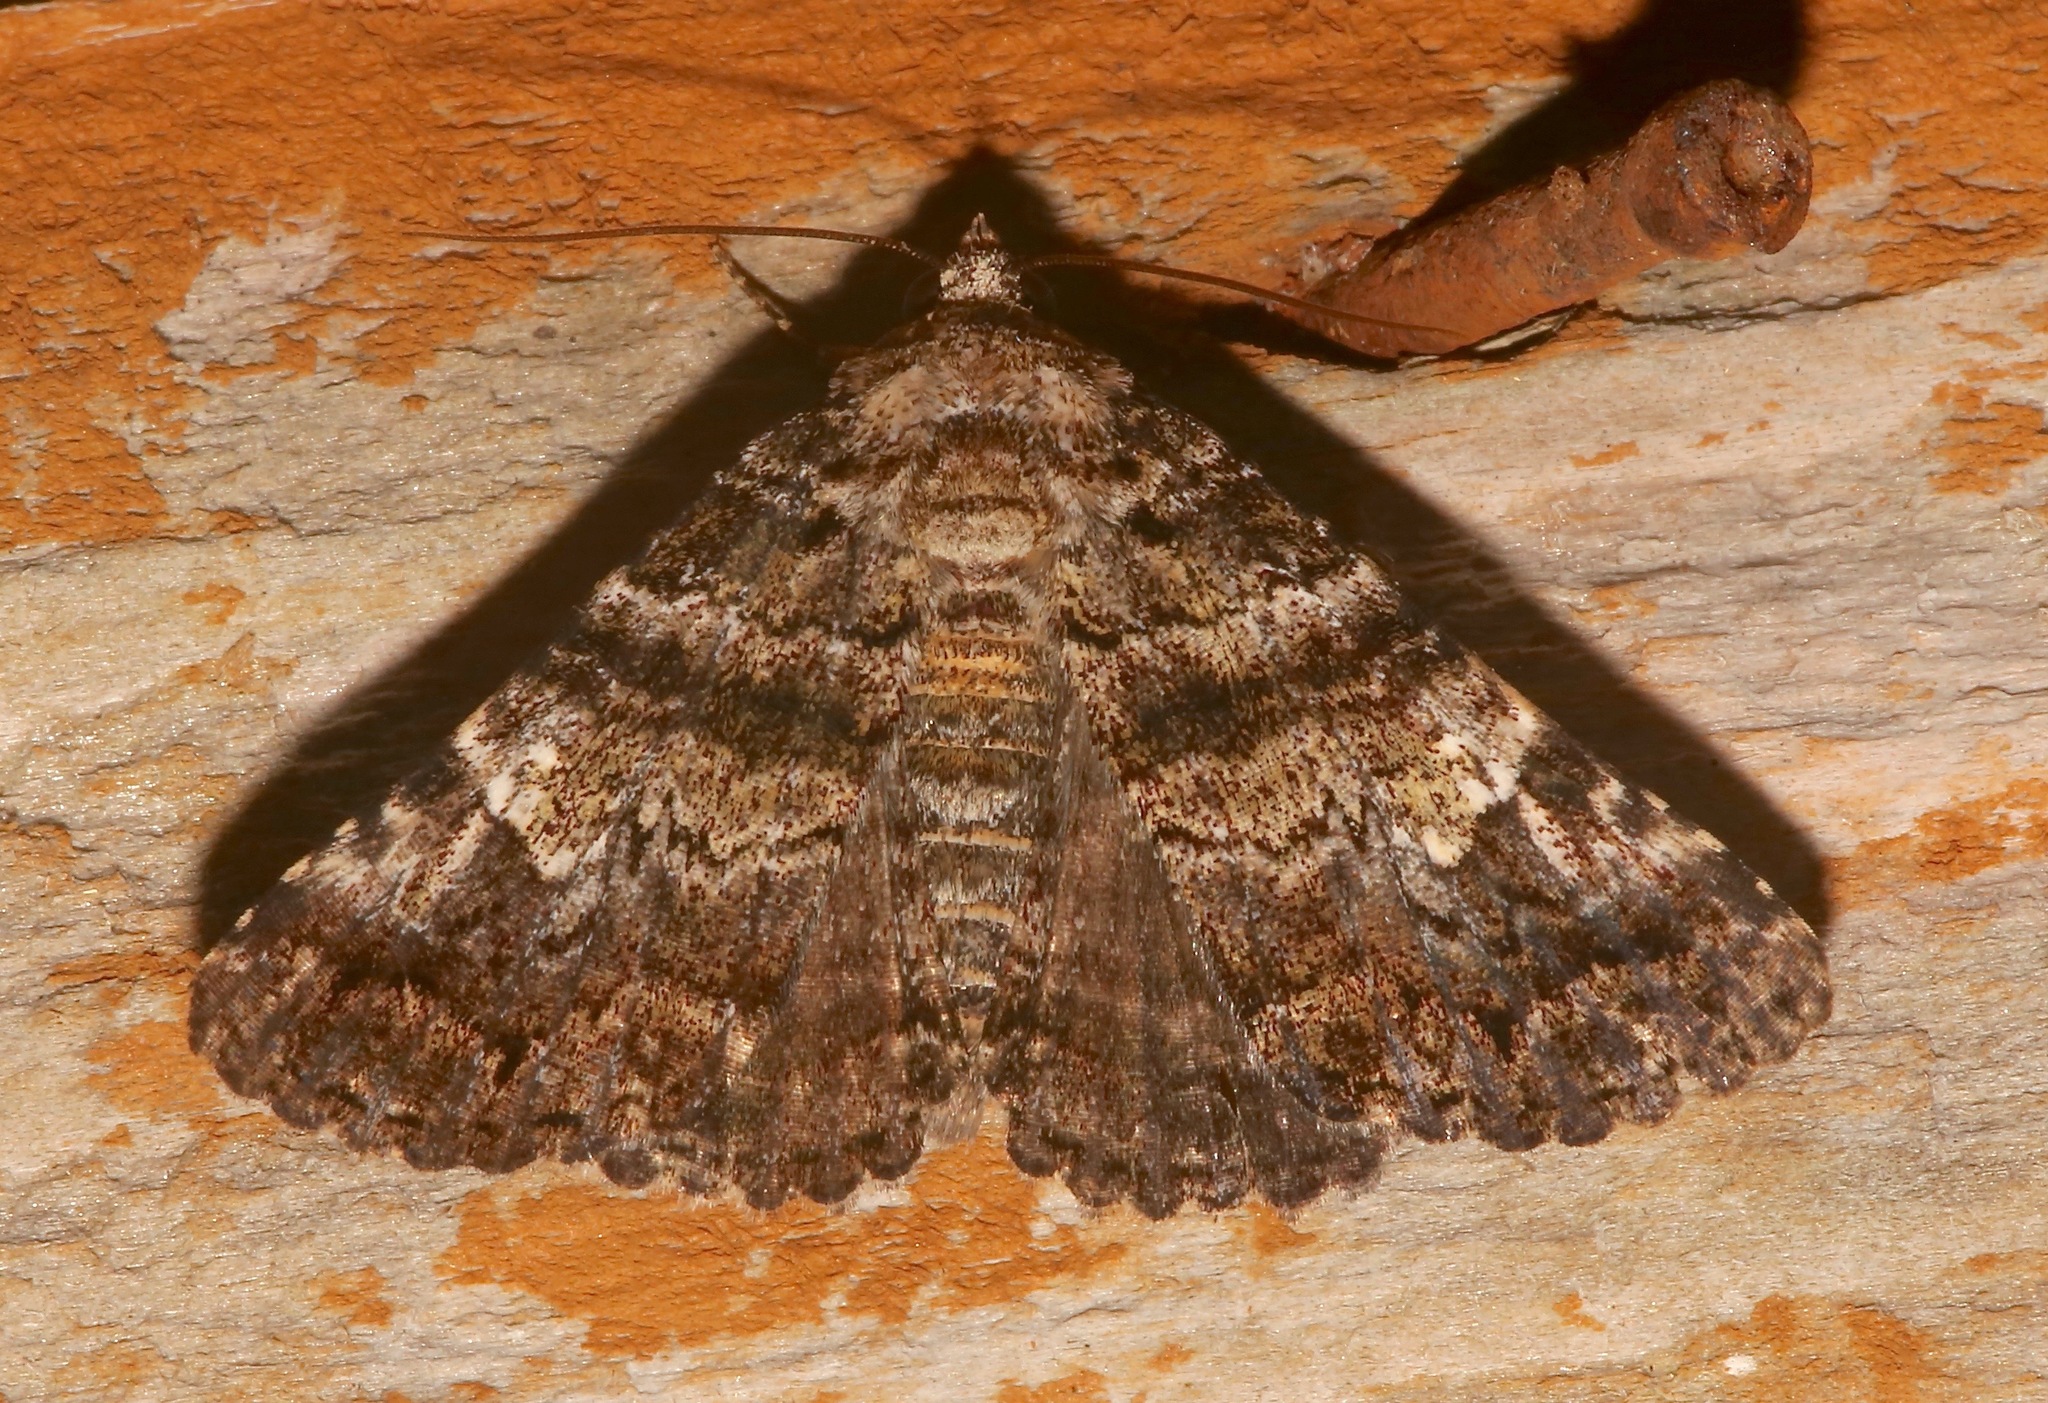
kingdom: Animalia
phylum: Arthropoda
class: Insecta
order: Lepidoptera
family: Erebidae
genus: Metria
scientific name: Metria amella
